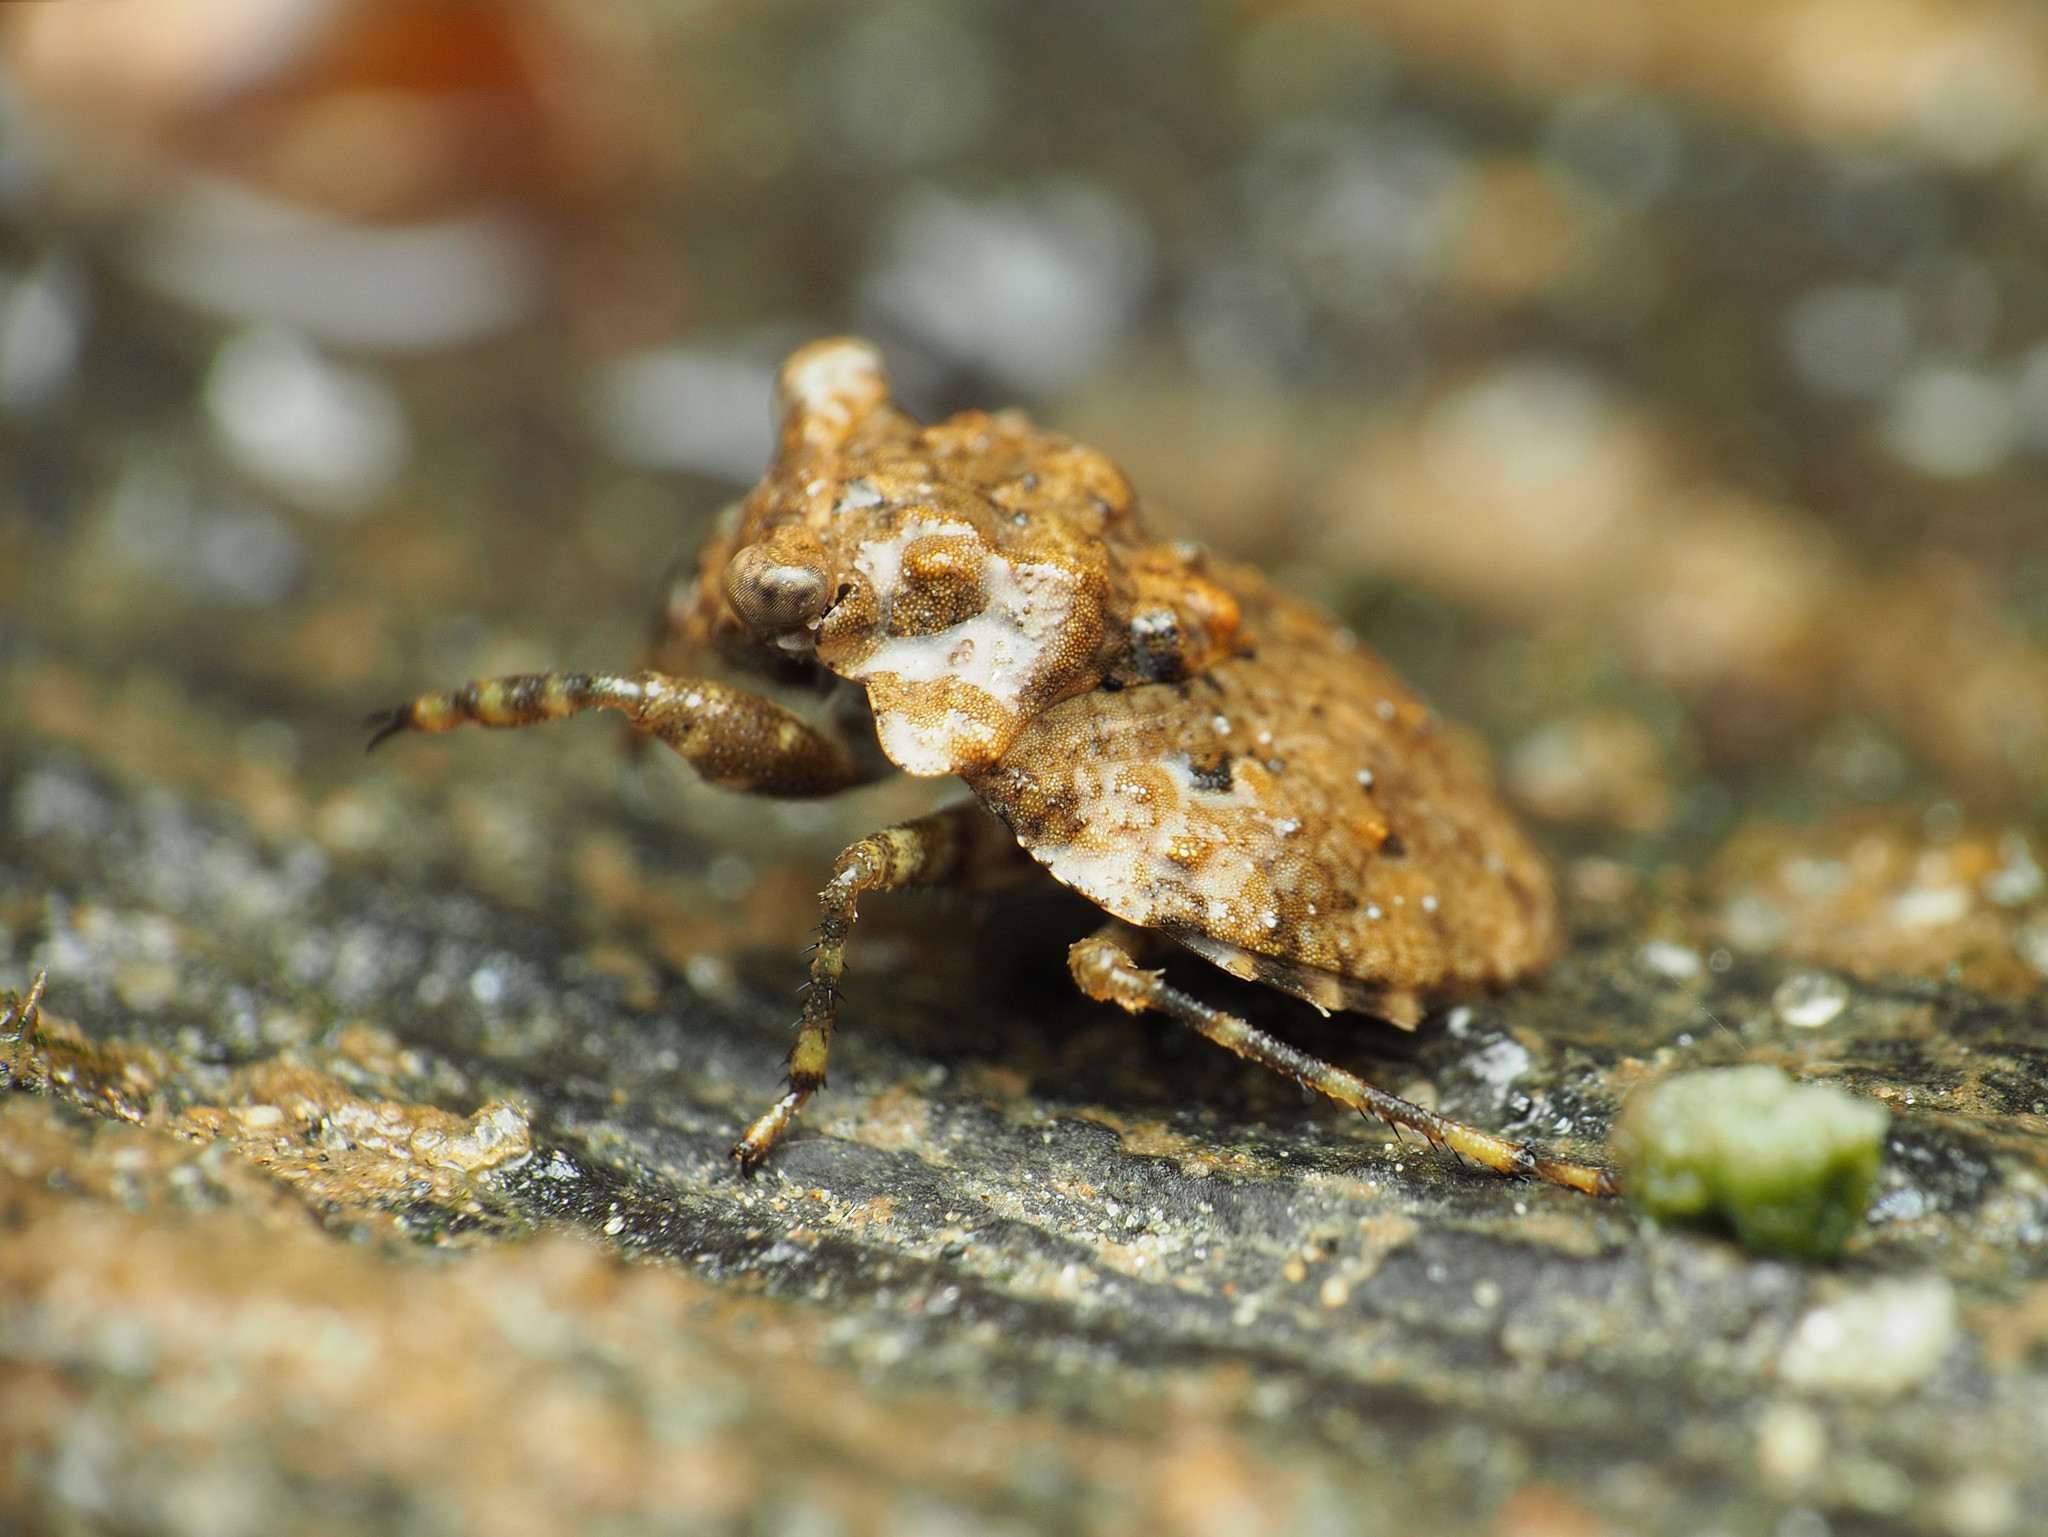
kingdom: Animalia
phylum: Arthropoda
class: Insecta
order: Hemiptera
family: Gelastocoridae
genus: Gelastocoris
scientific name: Gelastocoris oculatus
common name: Toad bug
